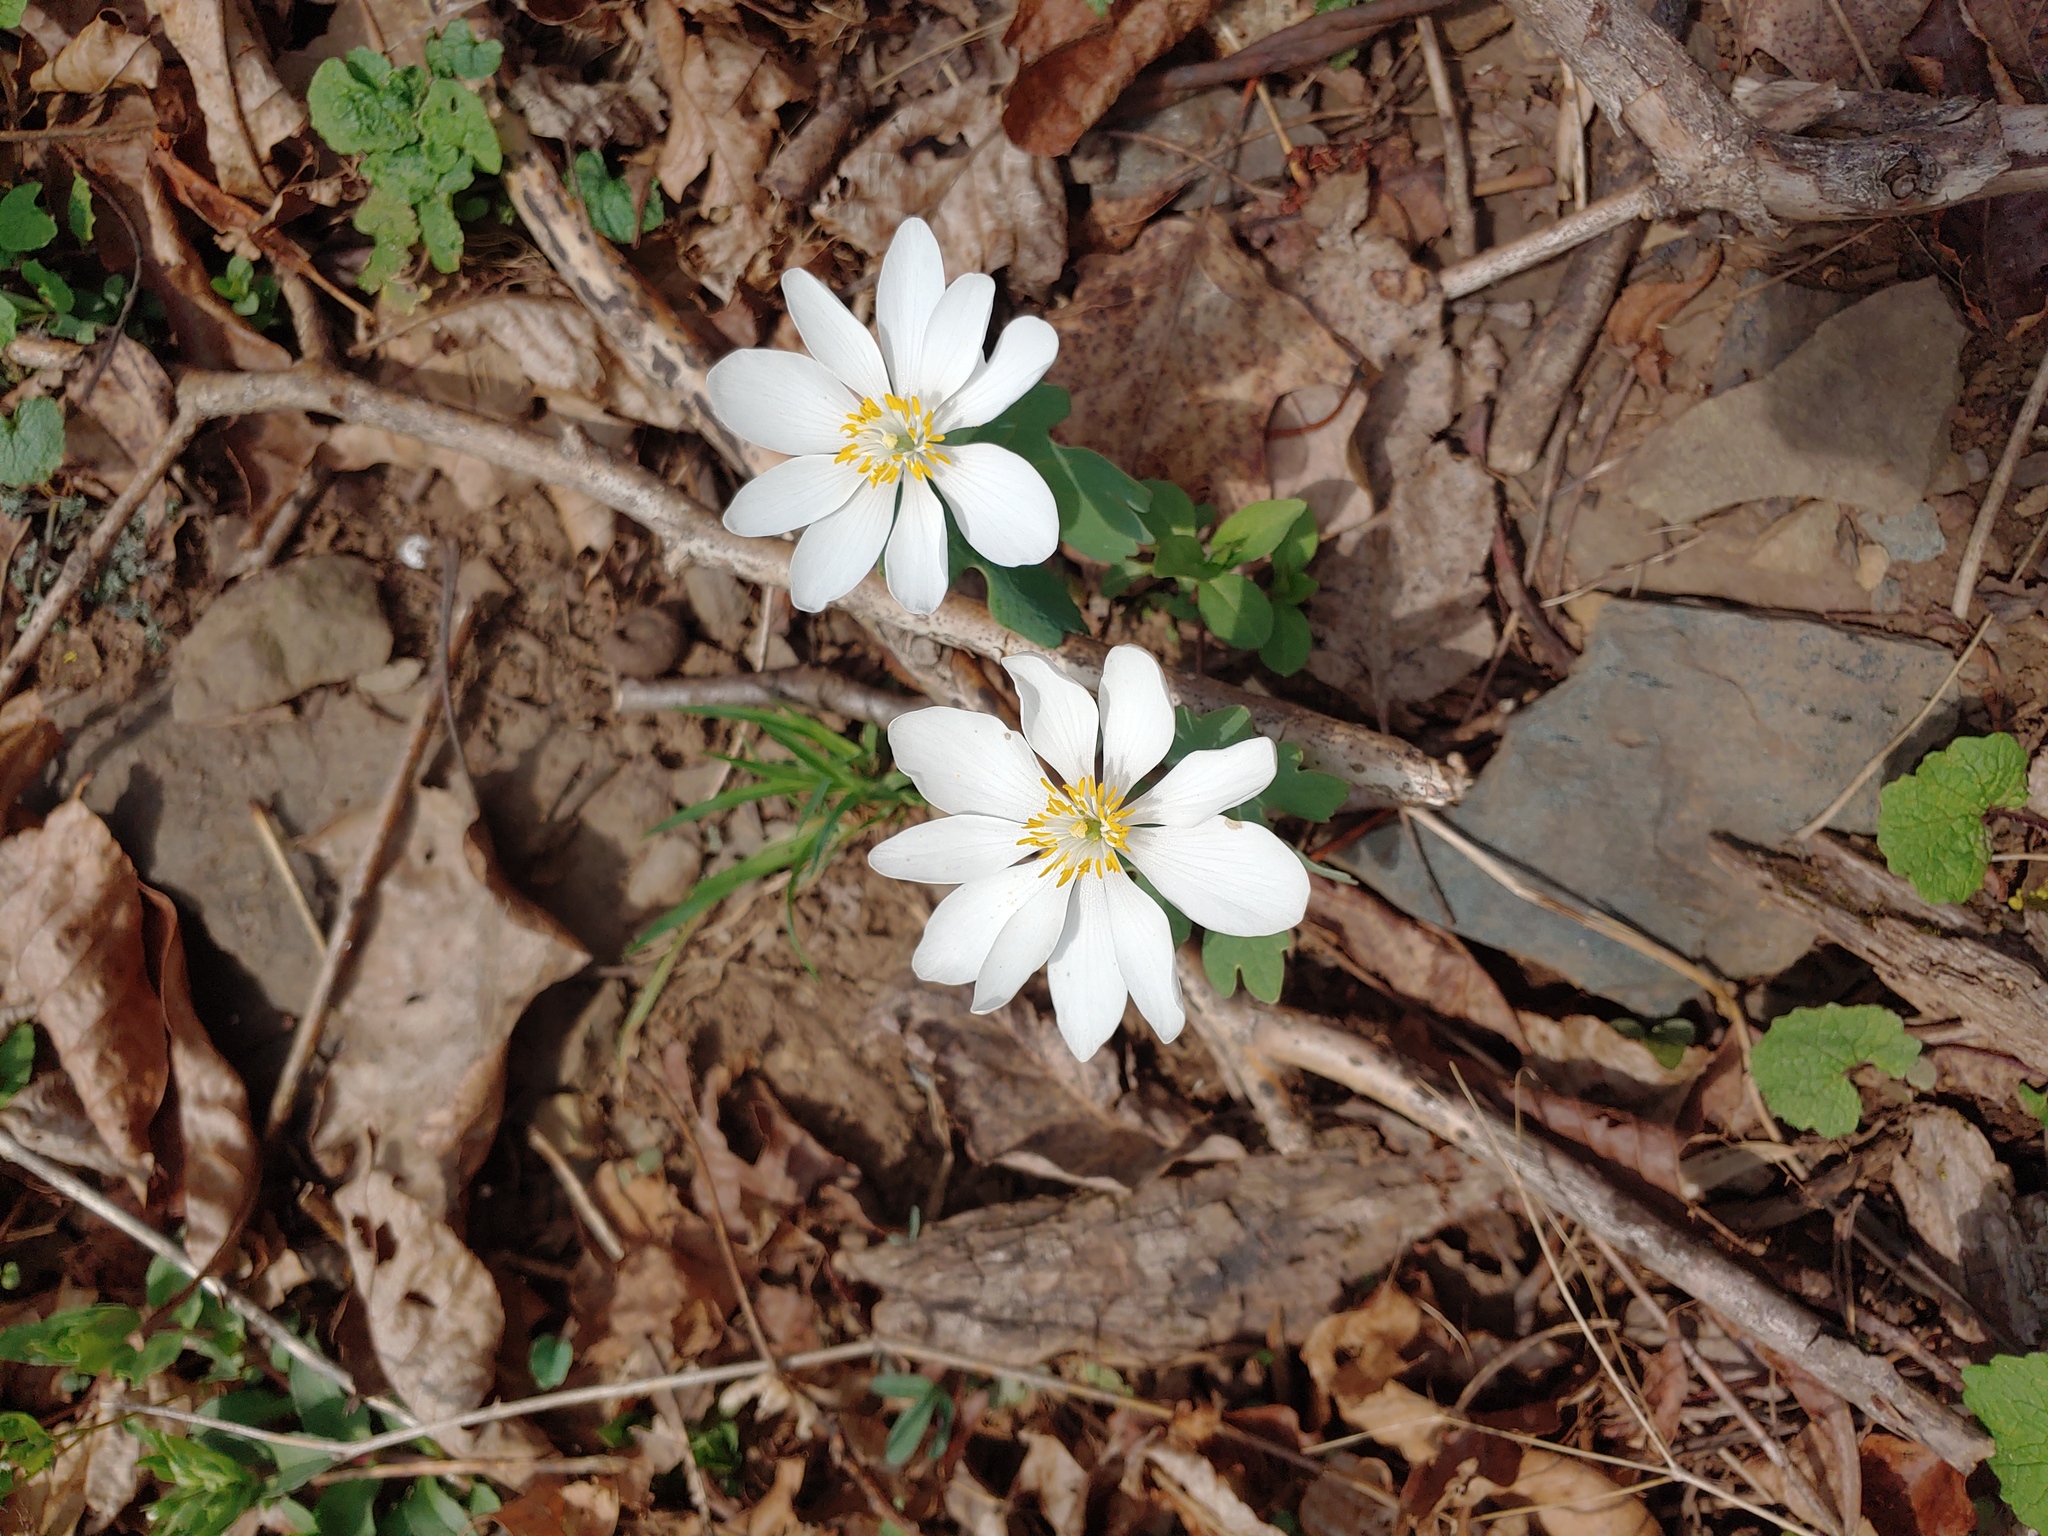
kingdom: Plantae
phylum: Tracheophyta
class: Magnoliopsida
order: Ranunculales
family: Papaveraceae
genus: Sanguinaria
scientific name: Sanguinaria canadensis
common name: Bloodroot
